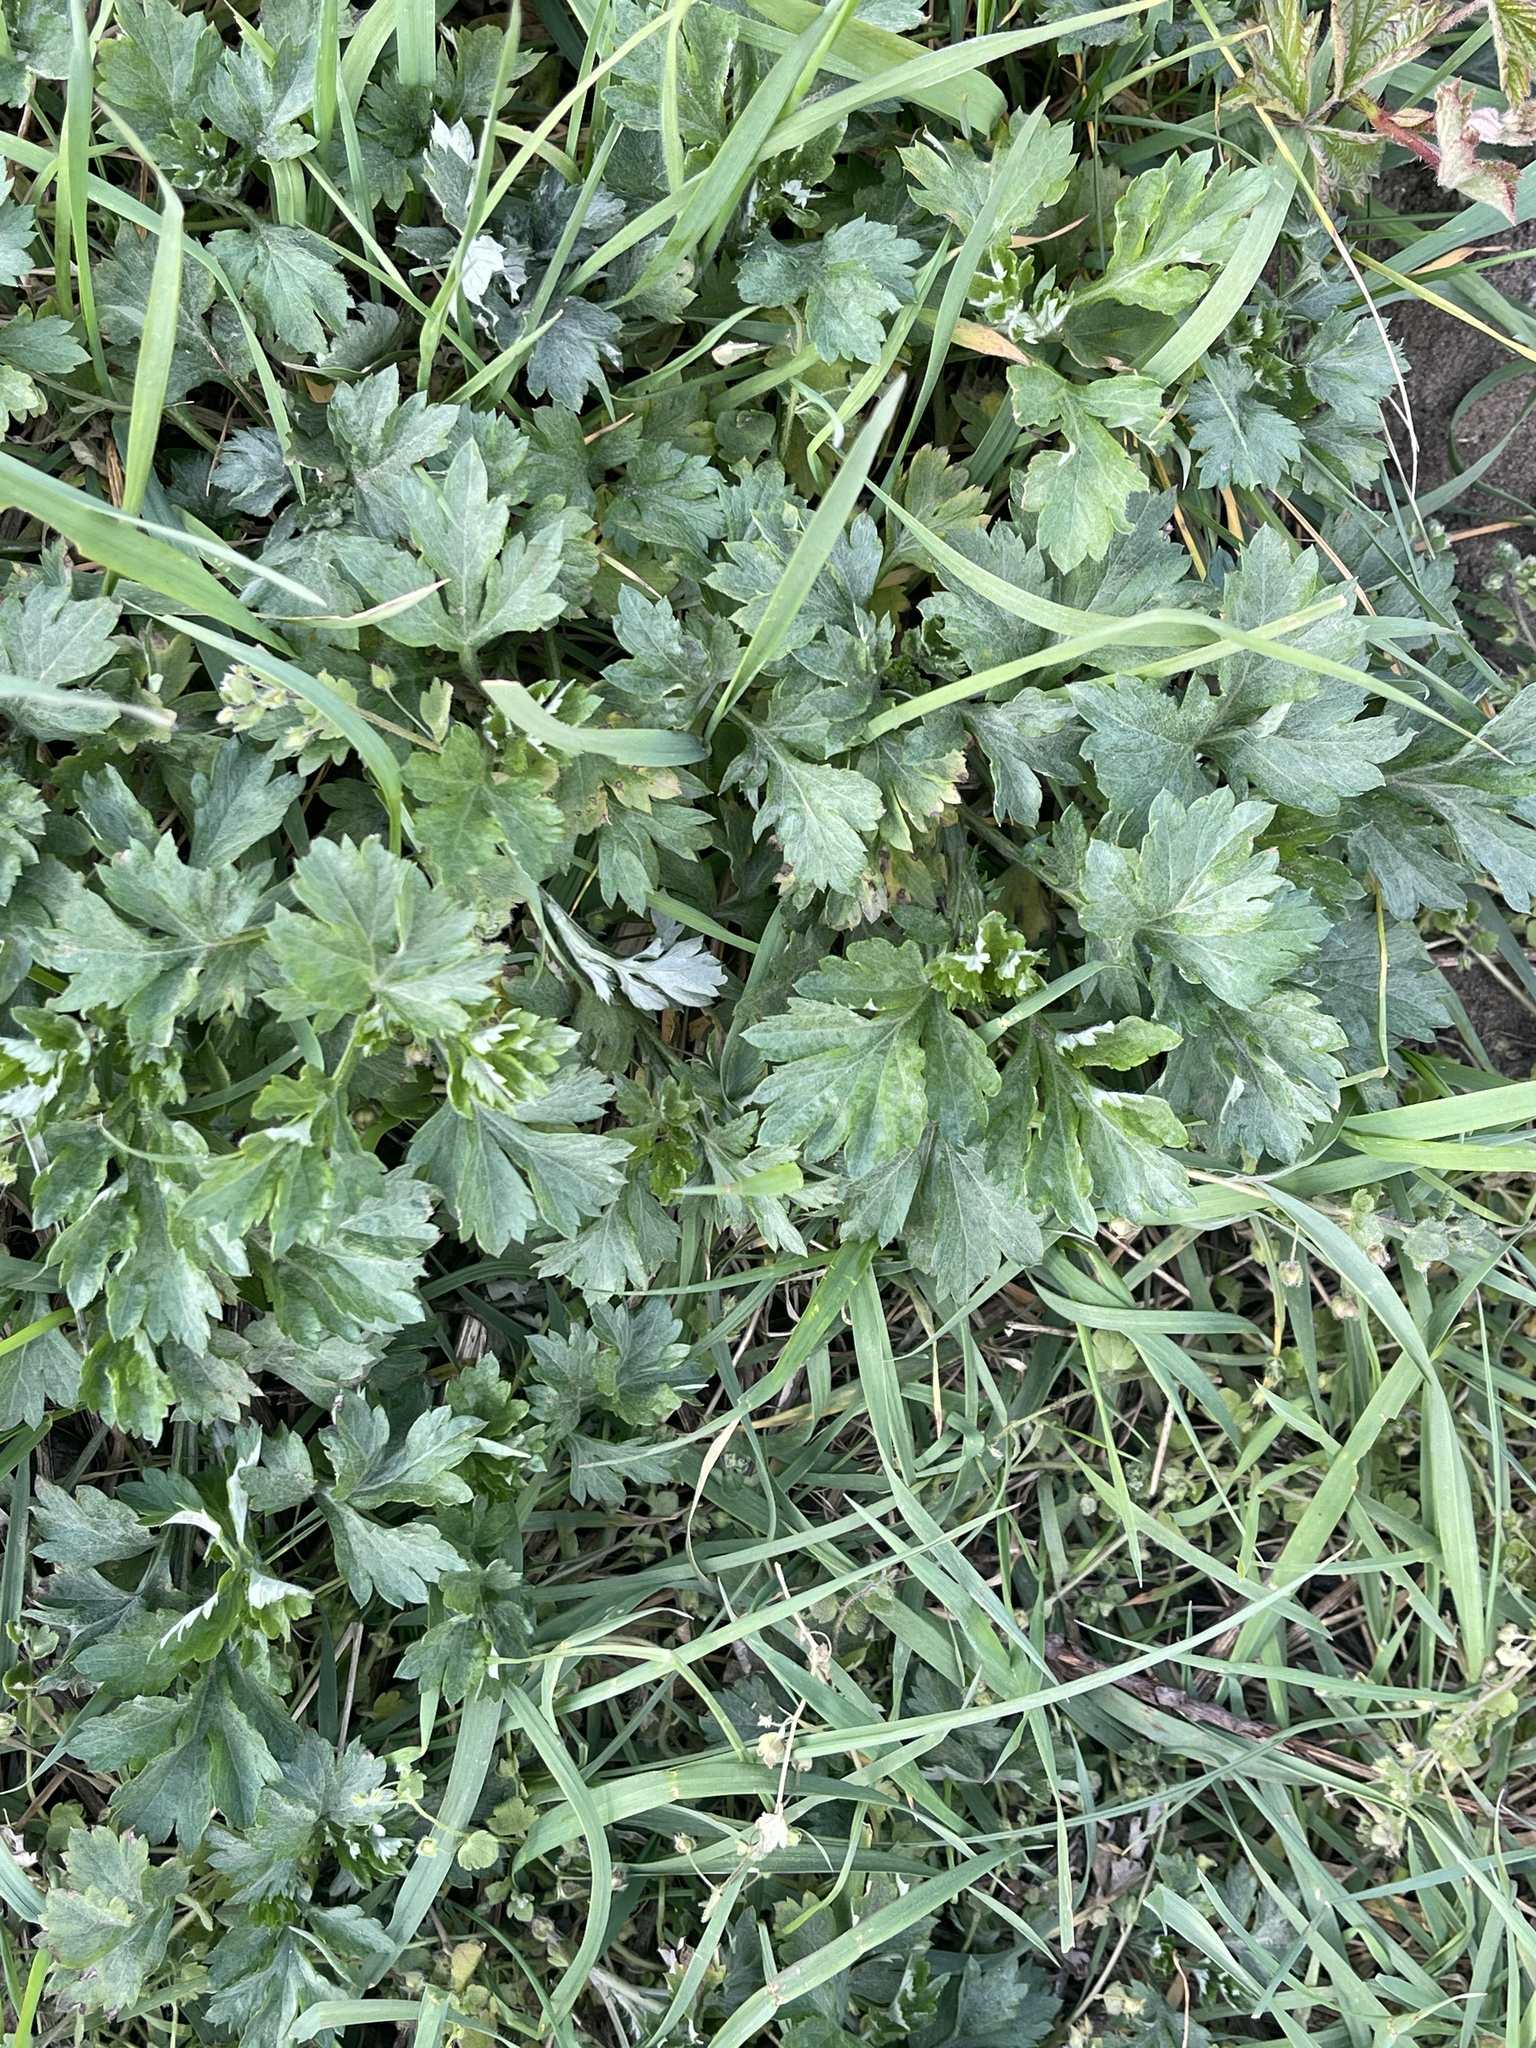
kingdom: Plantae
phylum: Tracheophyta
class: Magnoliopsida
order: Ranunculales
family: Ranunculaceae
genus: Ranunculus
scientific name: Ranunculus repens
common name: Creeping buttercup
